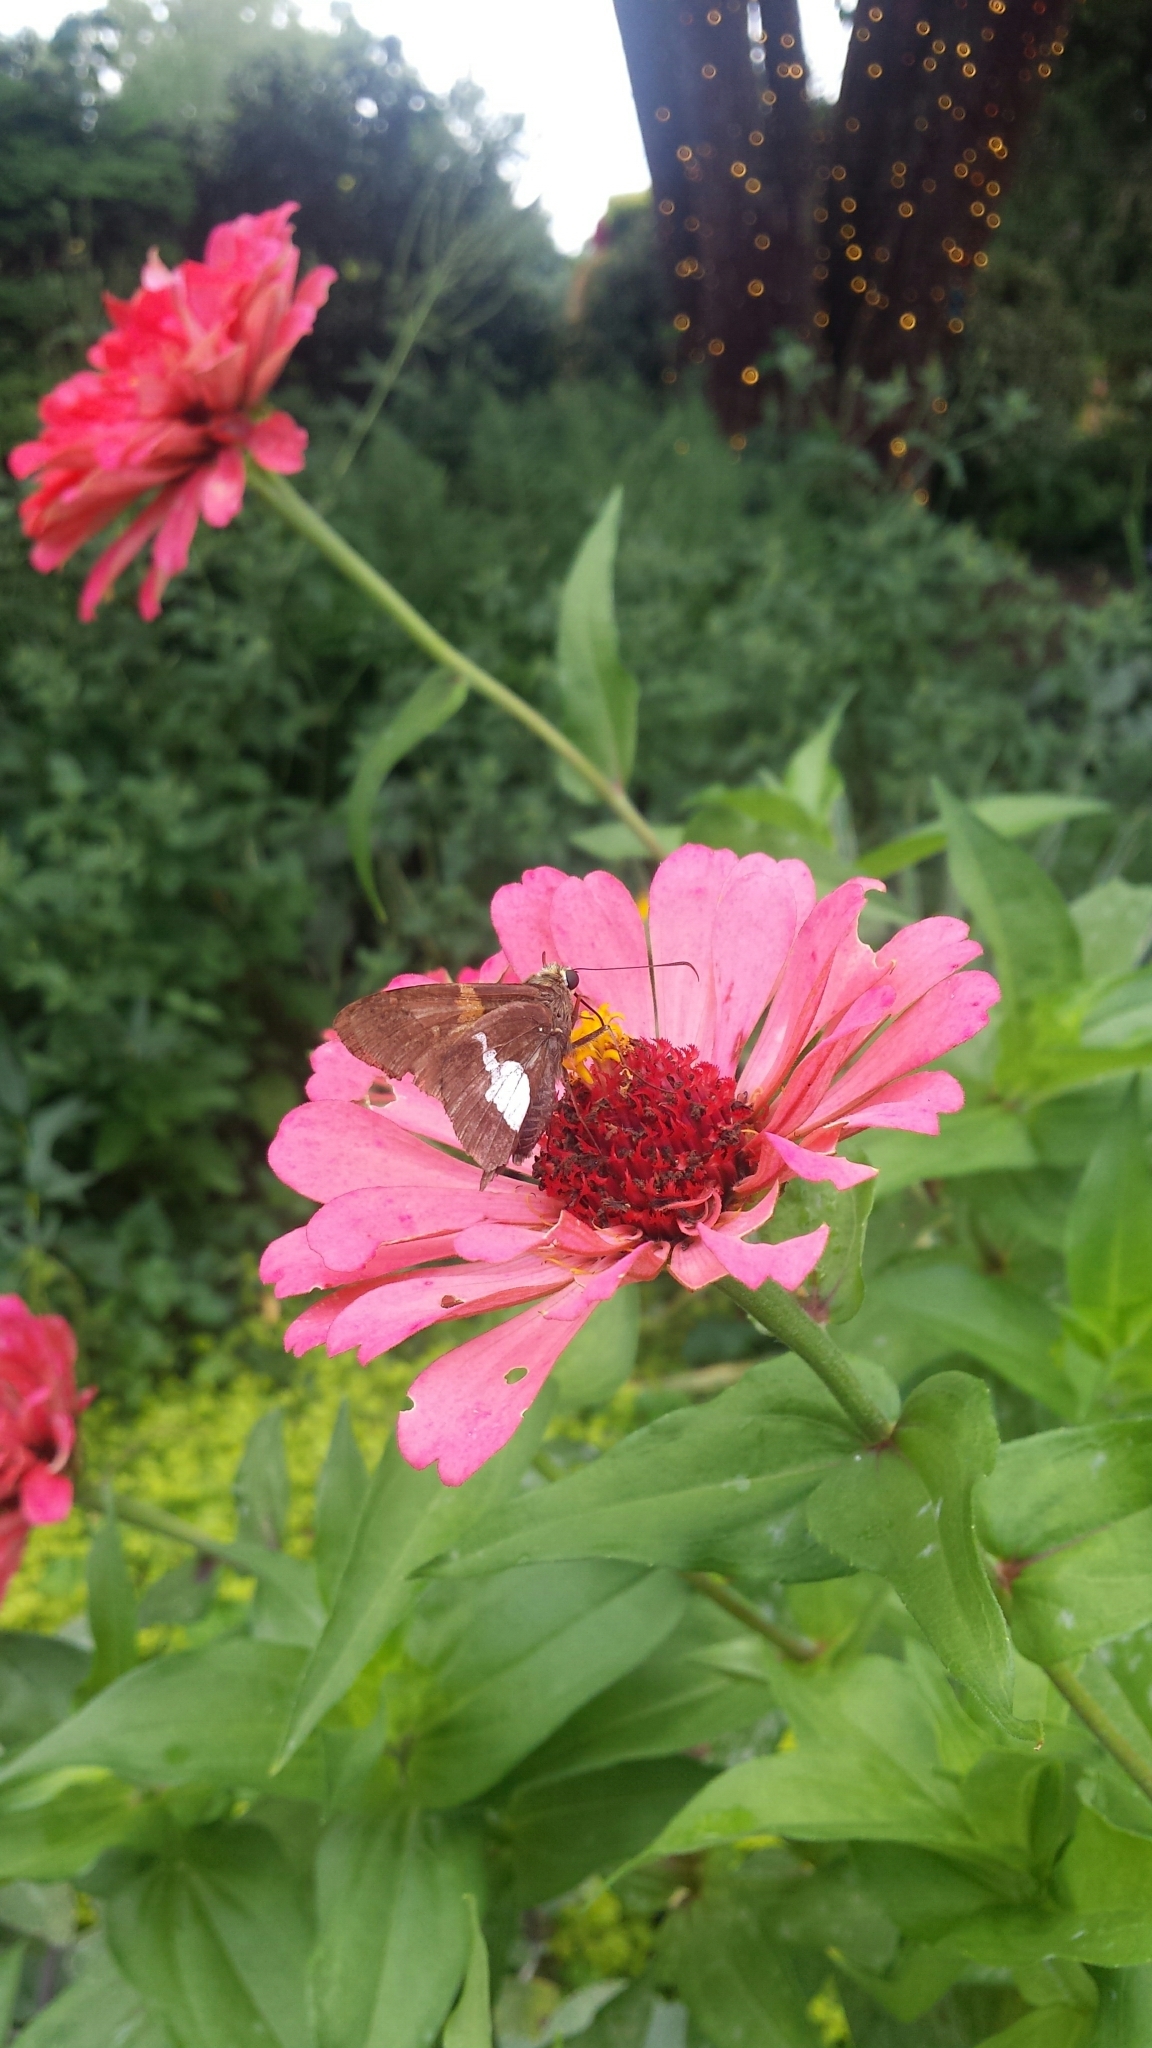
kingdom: Animalia
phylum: Arthropoda
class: Insecta
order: Lepidoptera
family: Hesperiidae
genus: Epargyreus
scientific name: Epargyreus clarus
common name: Silver-spotted skipper
